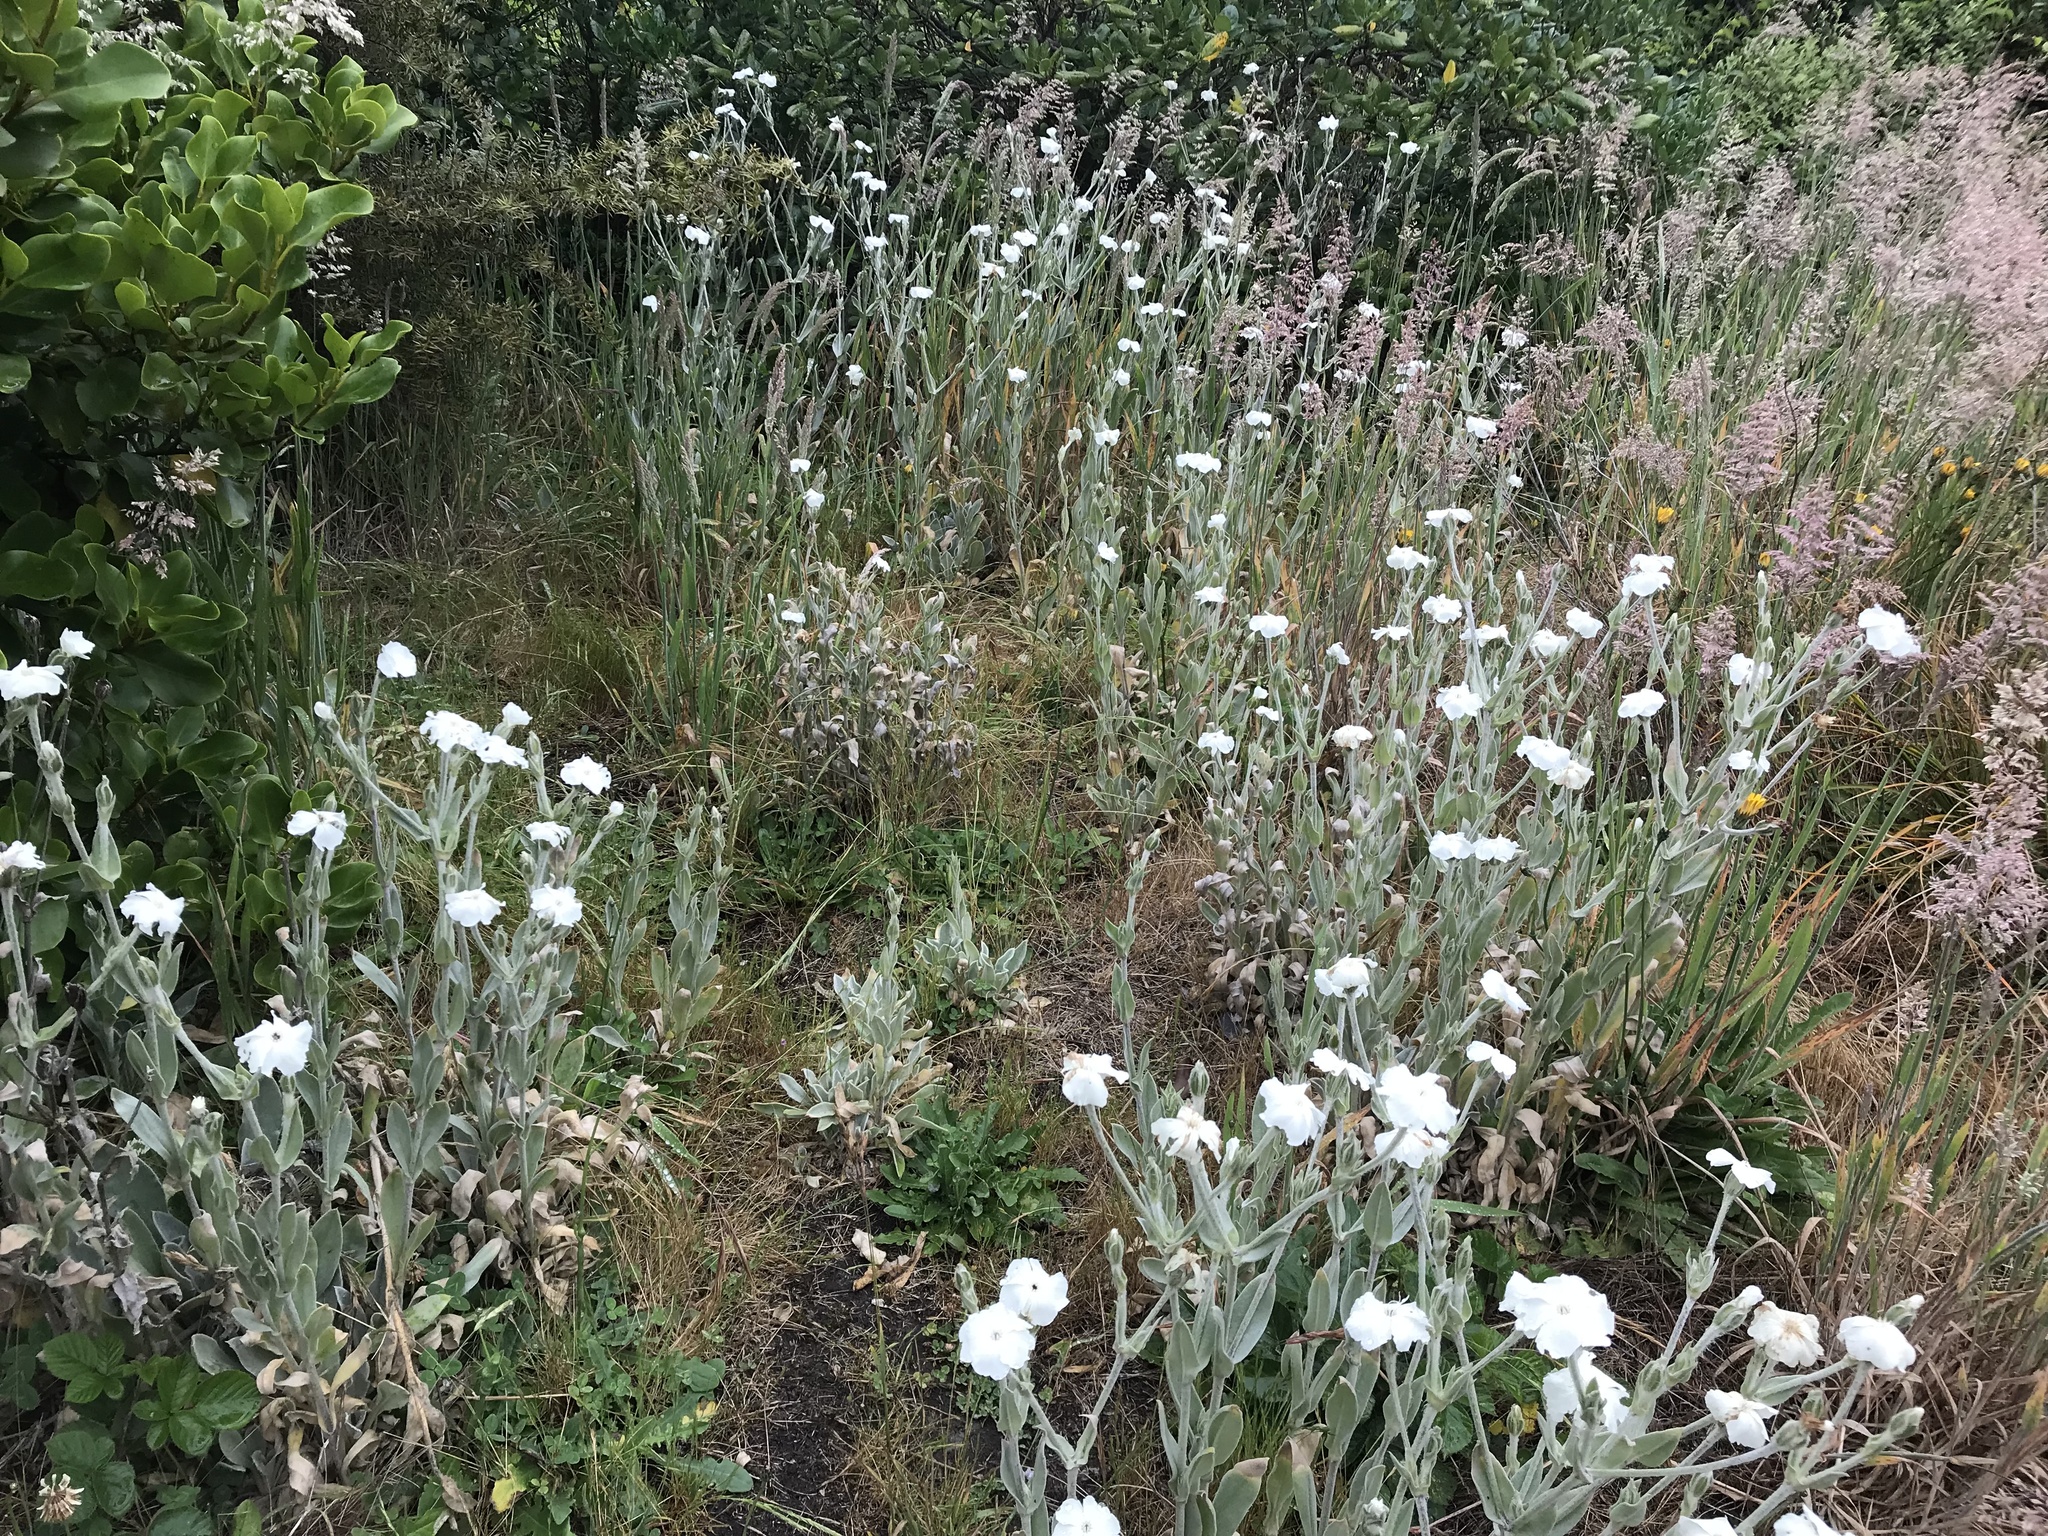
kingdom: Plantae
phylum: Tracheophyta
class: Magnoliopsida
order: Caryophyllales
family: Caryophyllaceae
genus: Silene
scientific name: Silene coronaria
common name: Rose campion
